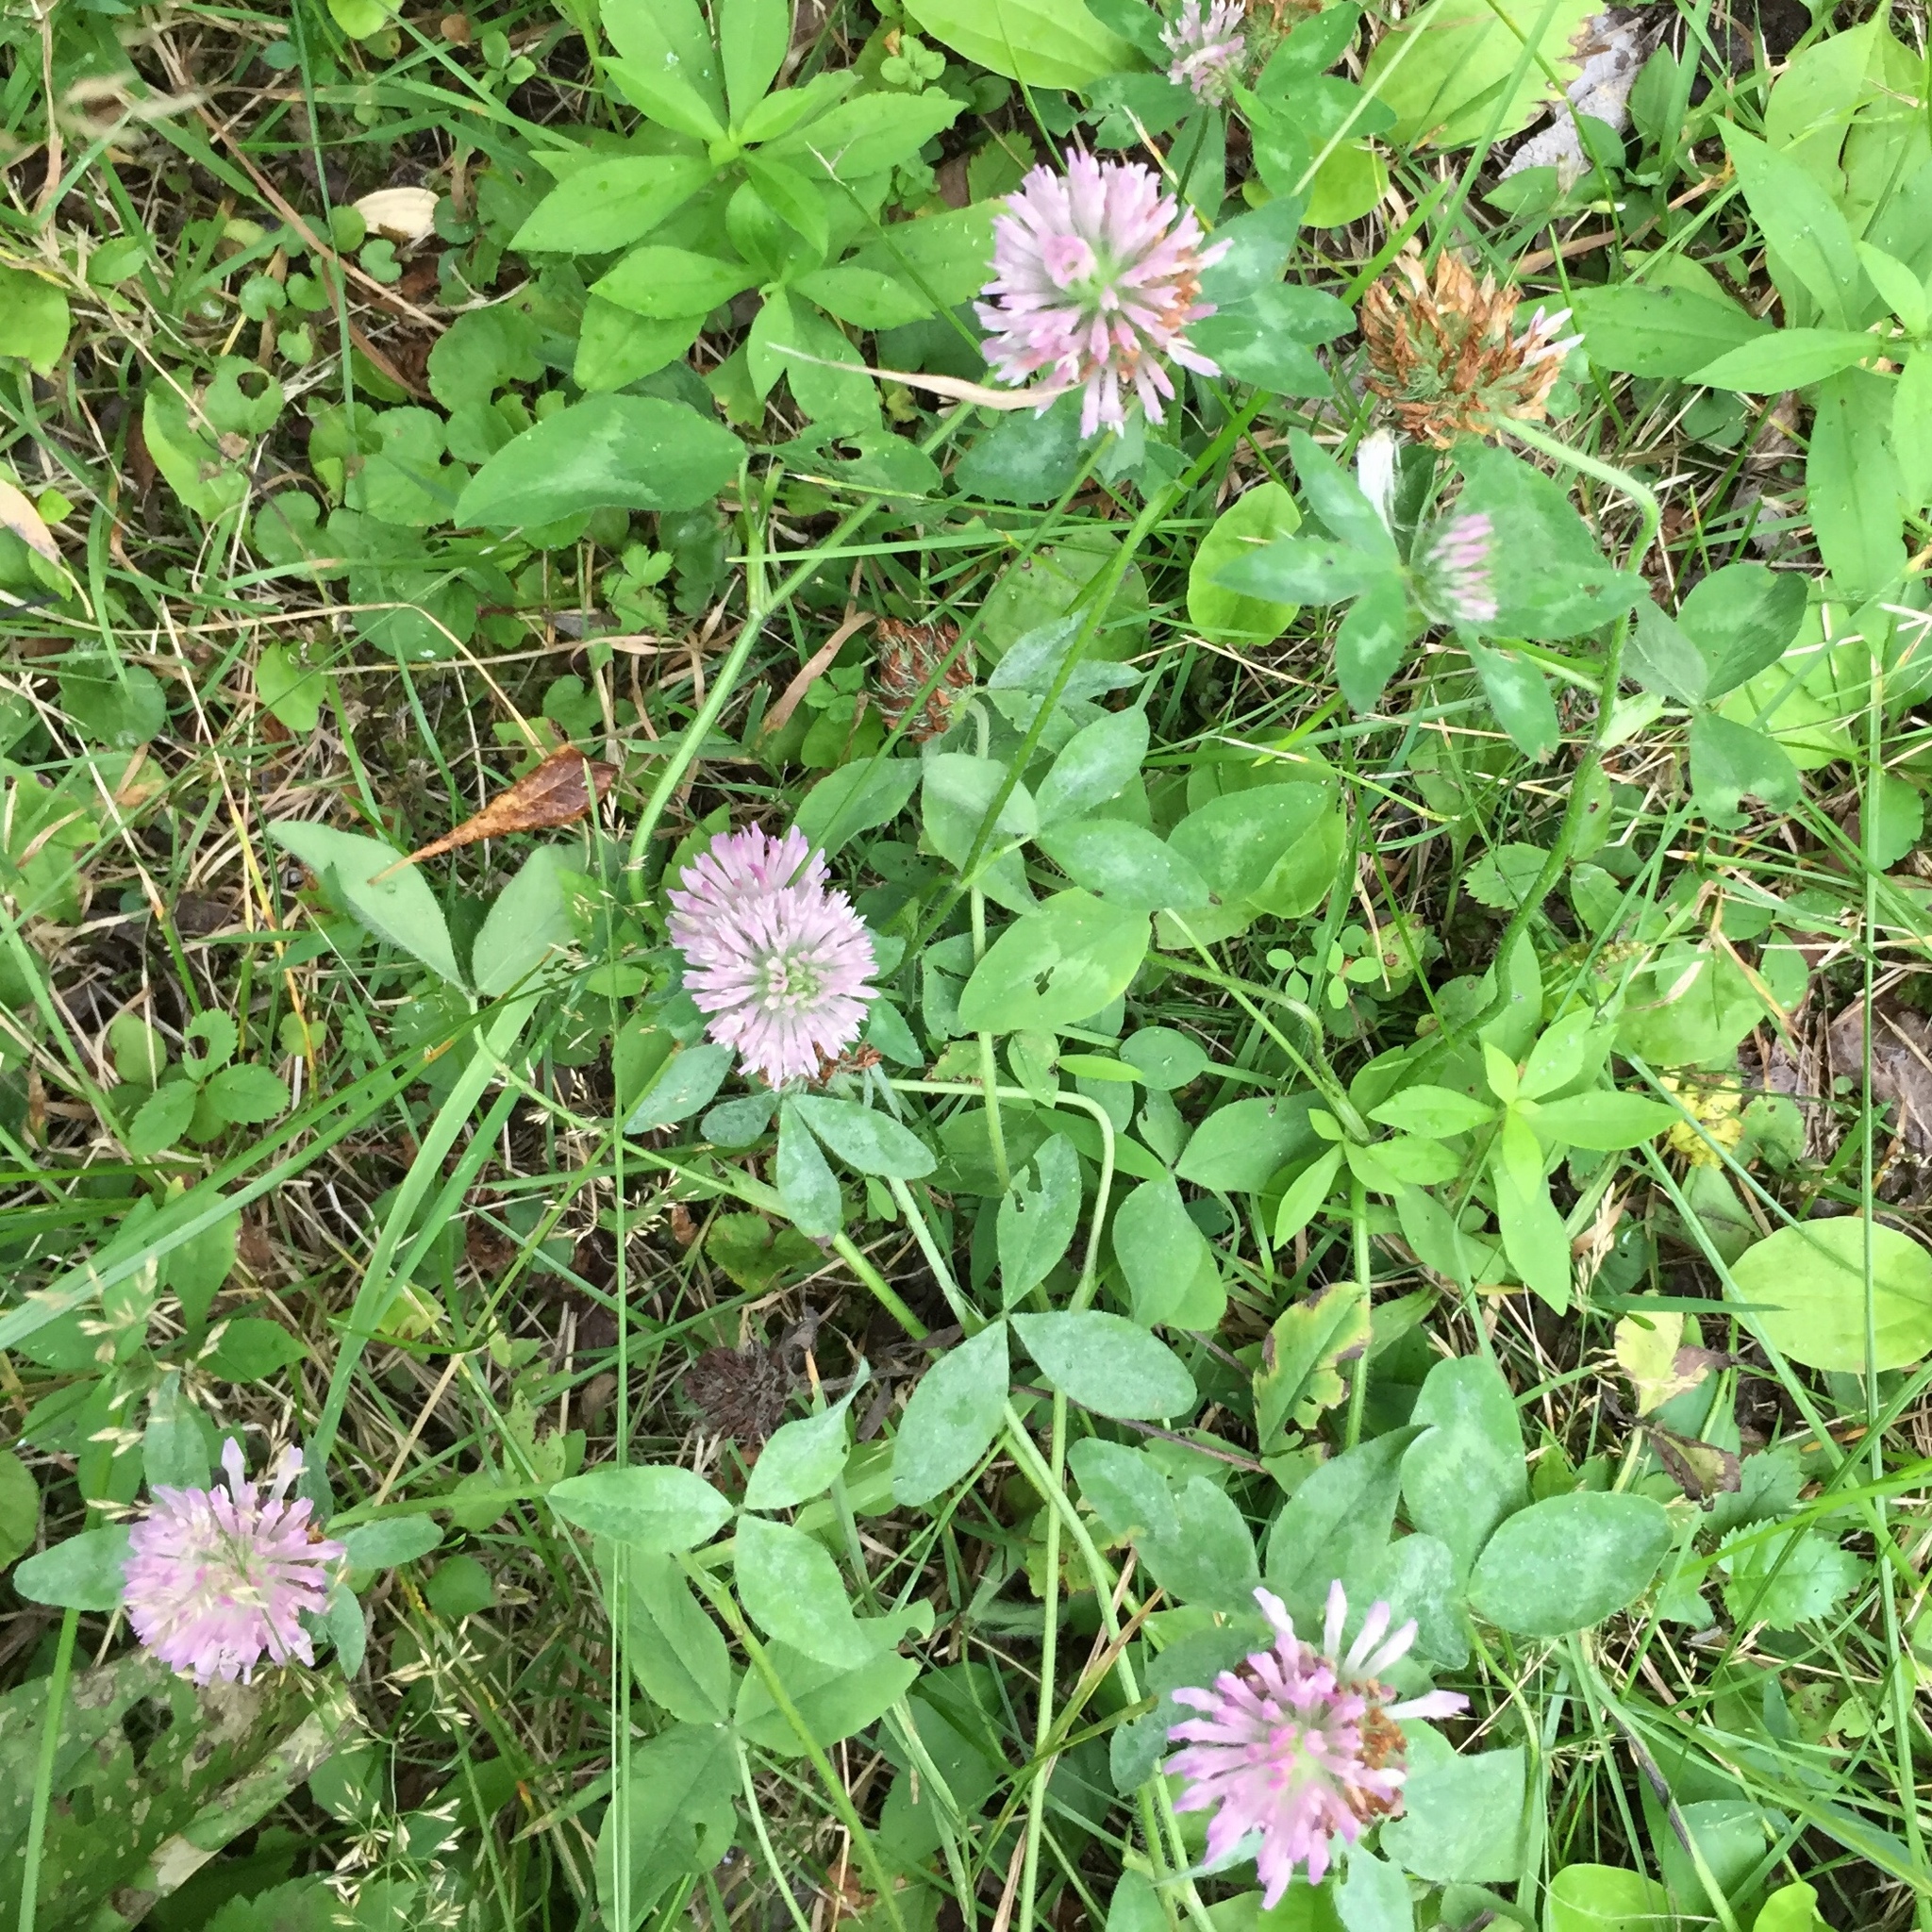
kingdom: Plantae
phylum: Tracheophyta
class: Magnoliopsida
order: Fabales
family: Fabaceae
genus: Trifolium
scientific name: Trifolium pratense
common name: Red clover
